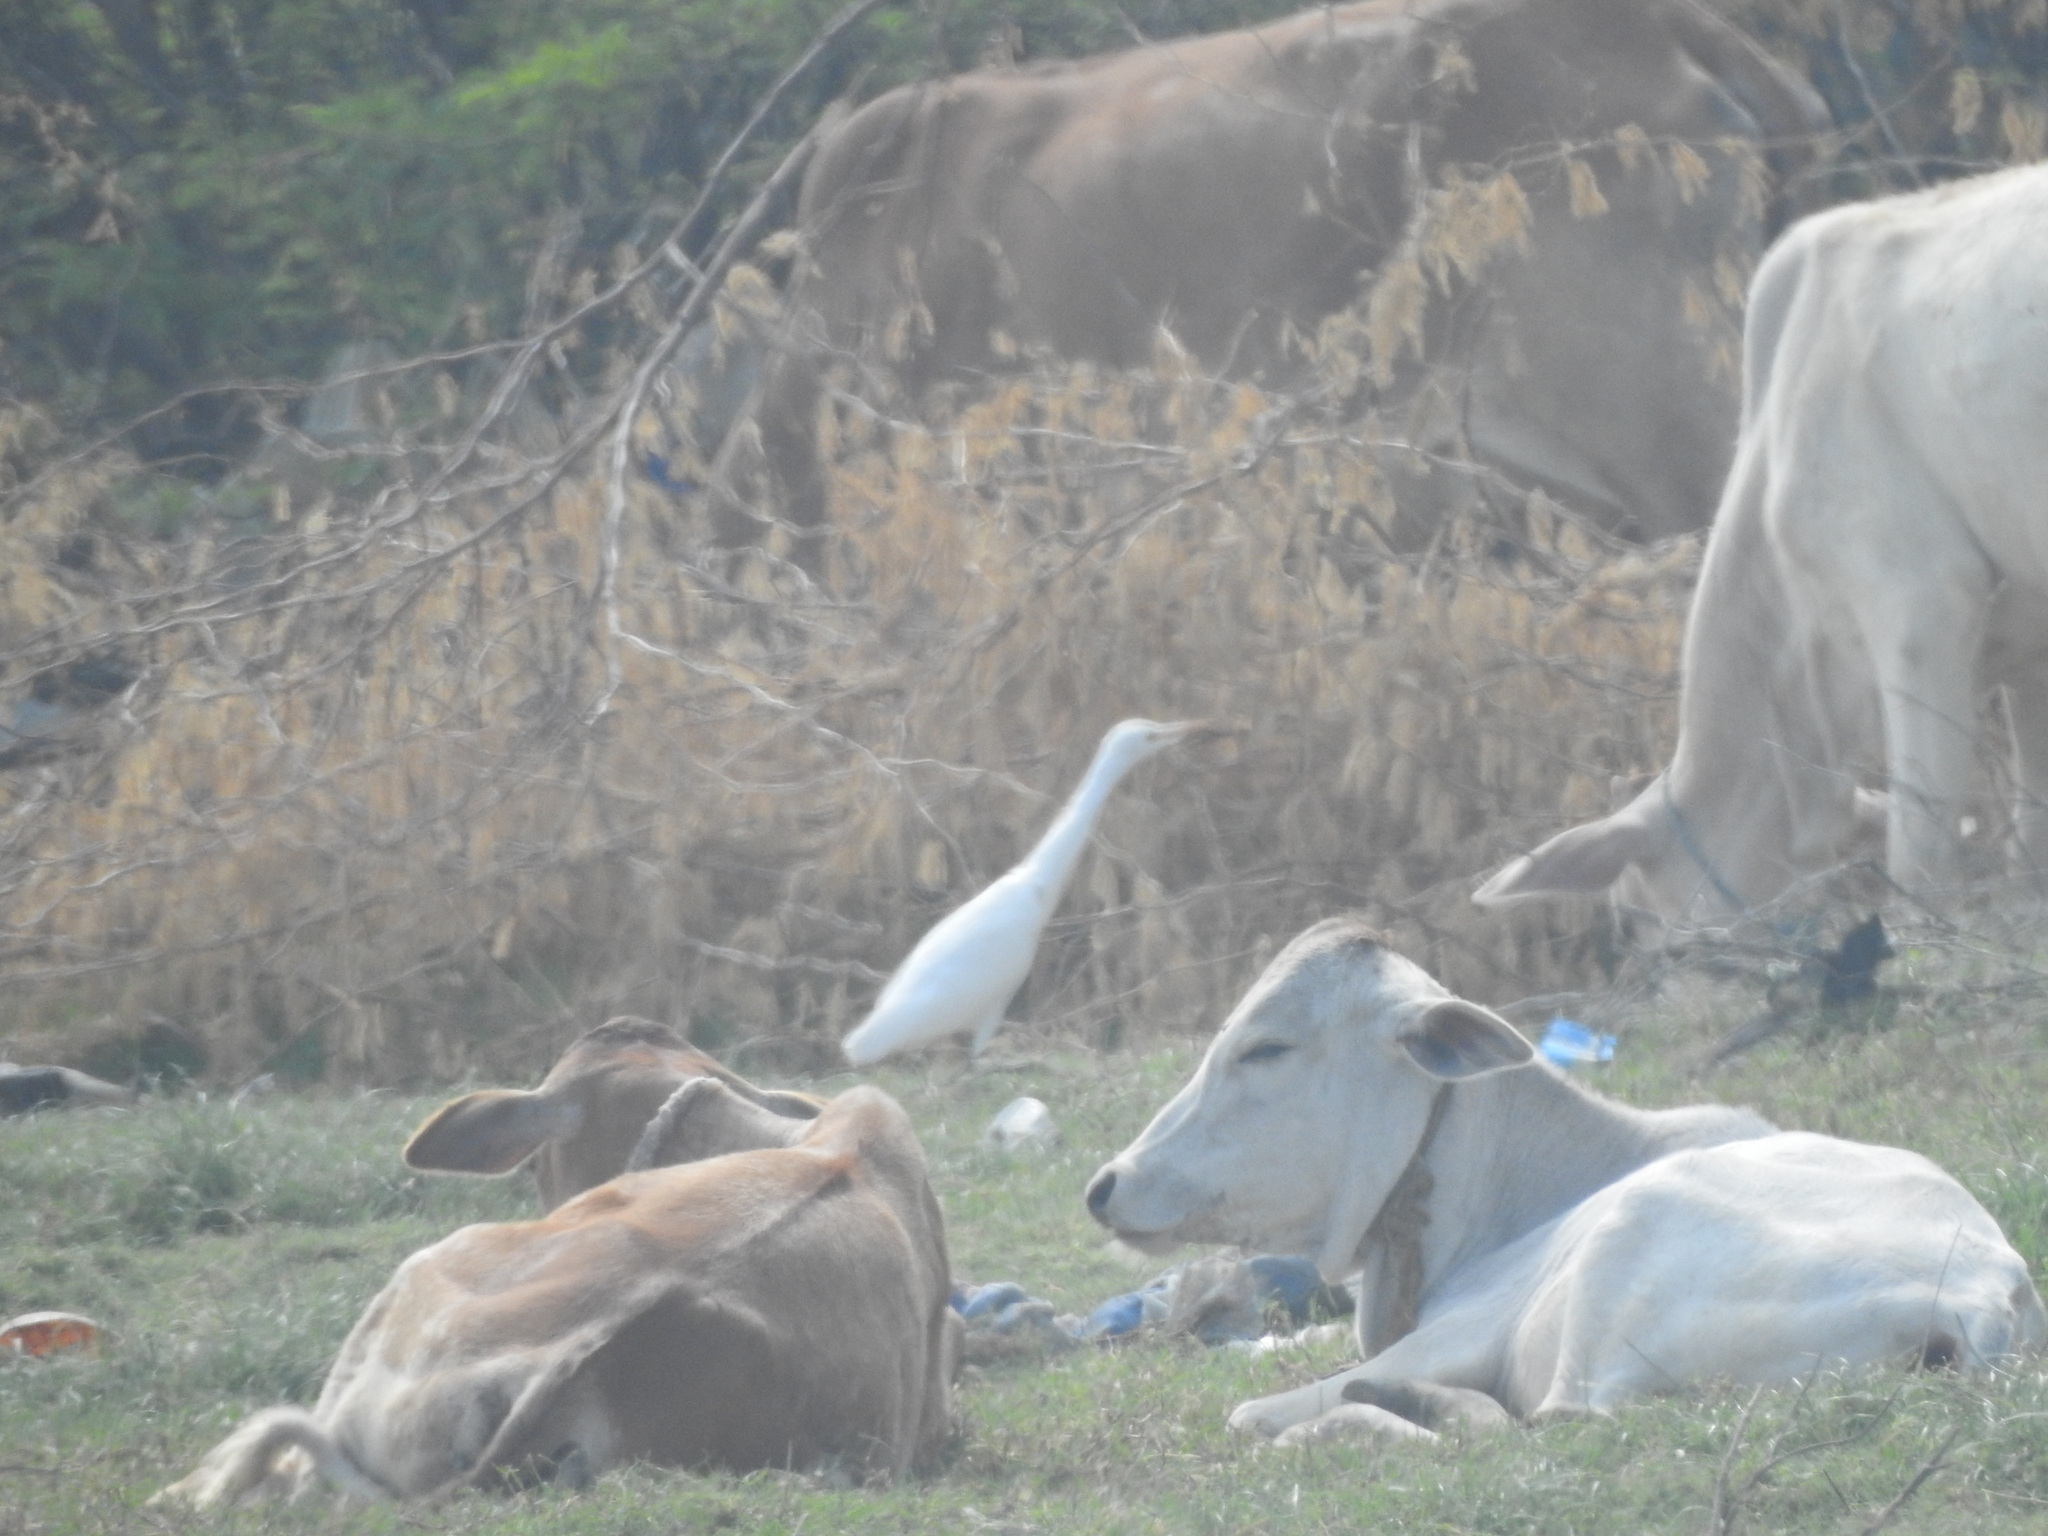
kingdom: Animalia
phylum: Chordata
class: Aves
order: Pelecaniformes
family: Ardeidae
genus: Bubulcus
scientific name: Bubulcus coromandus
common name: Eastern cattle egret
